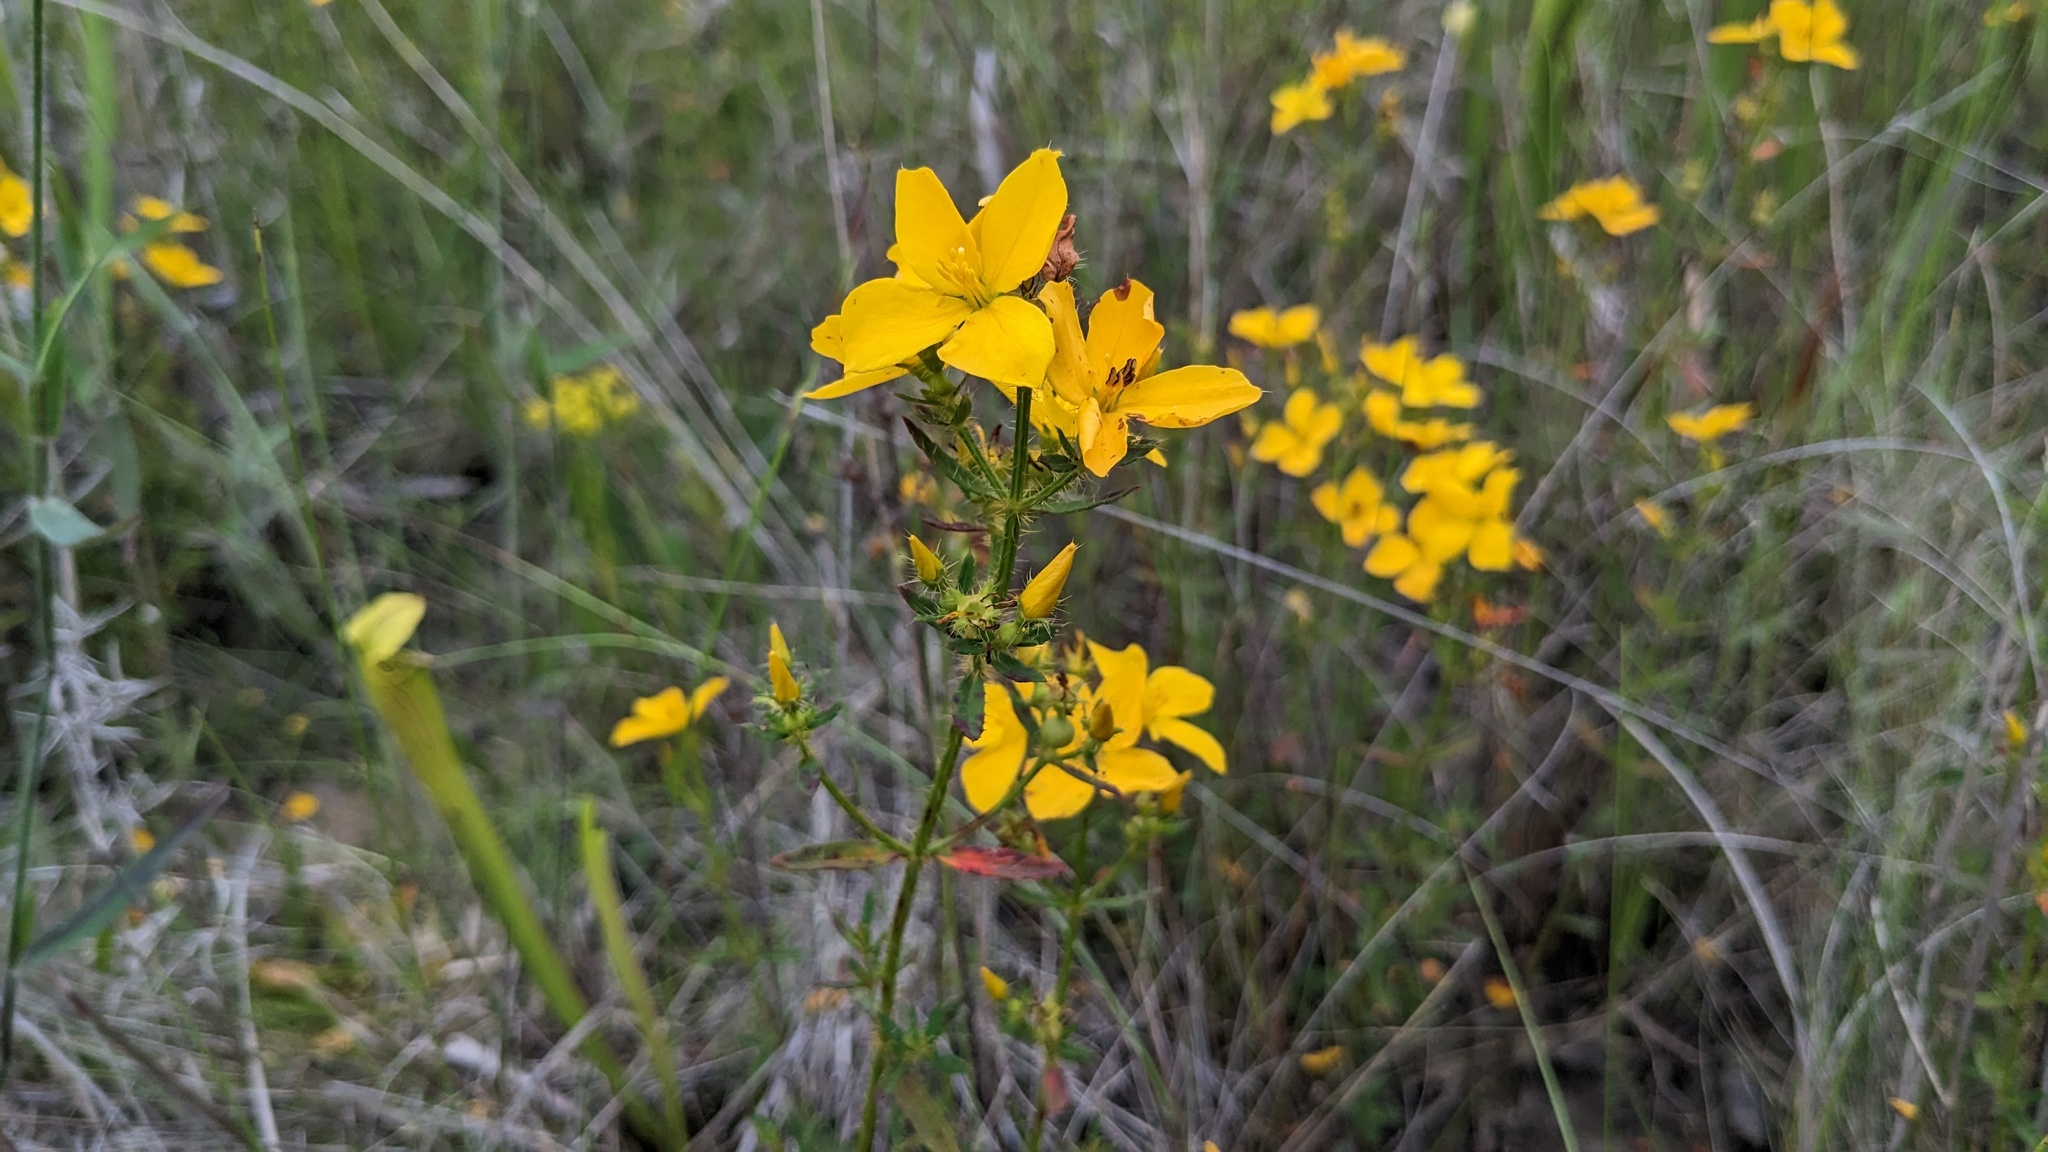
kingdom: Plantae
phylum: Tracheophyta
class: Magnoliopsida
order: Myrtales
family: Melastomataceae
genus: Rhexia
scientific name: Rhexia lutea
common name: Golden meadow-beauty
